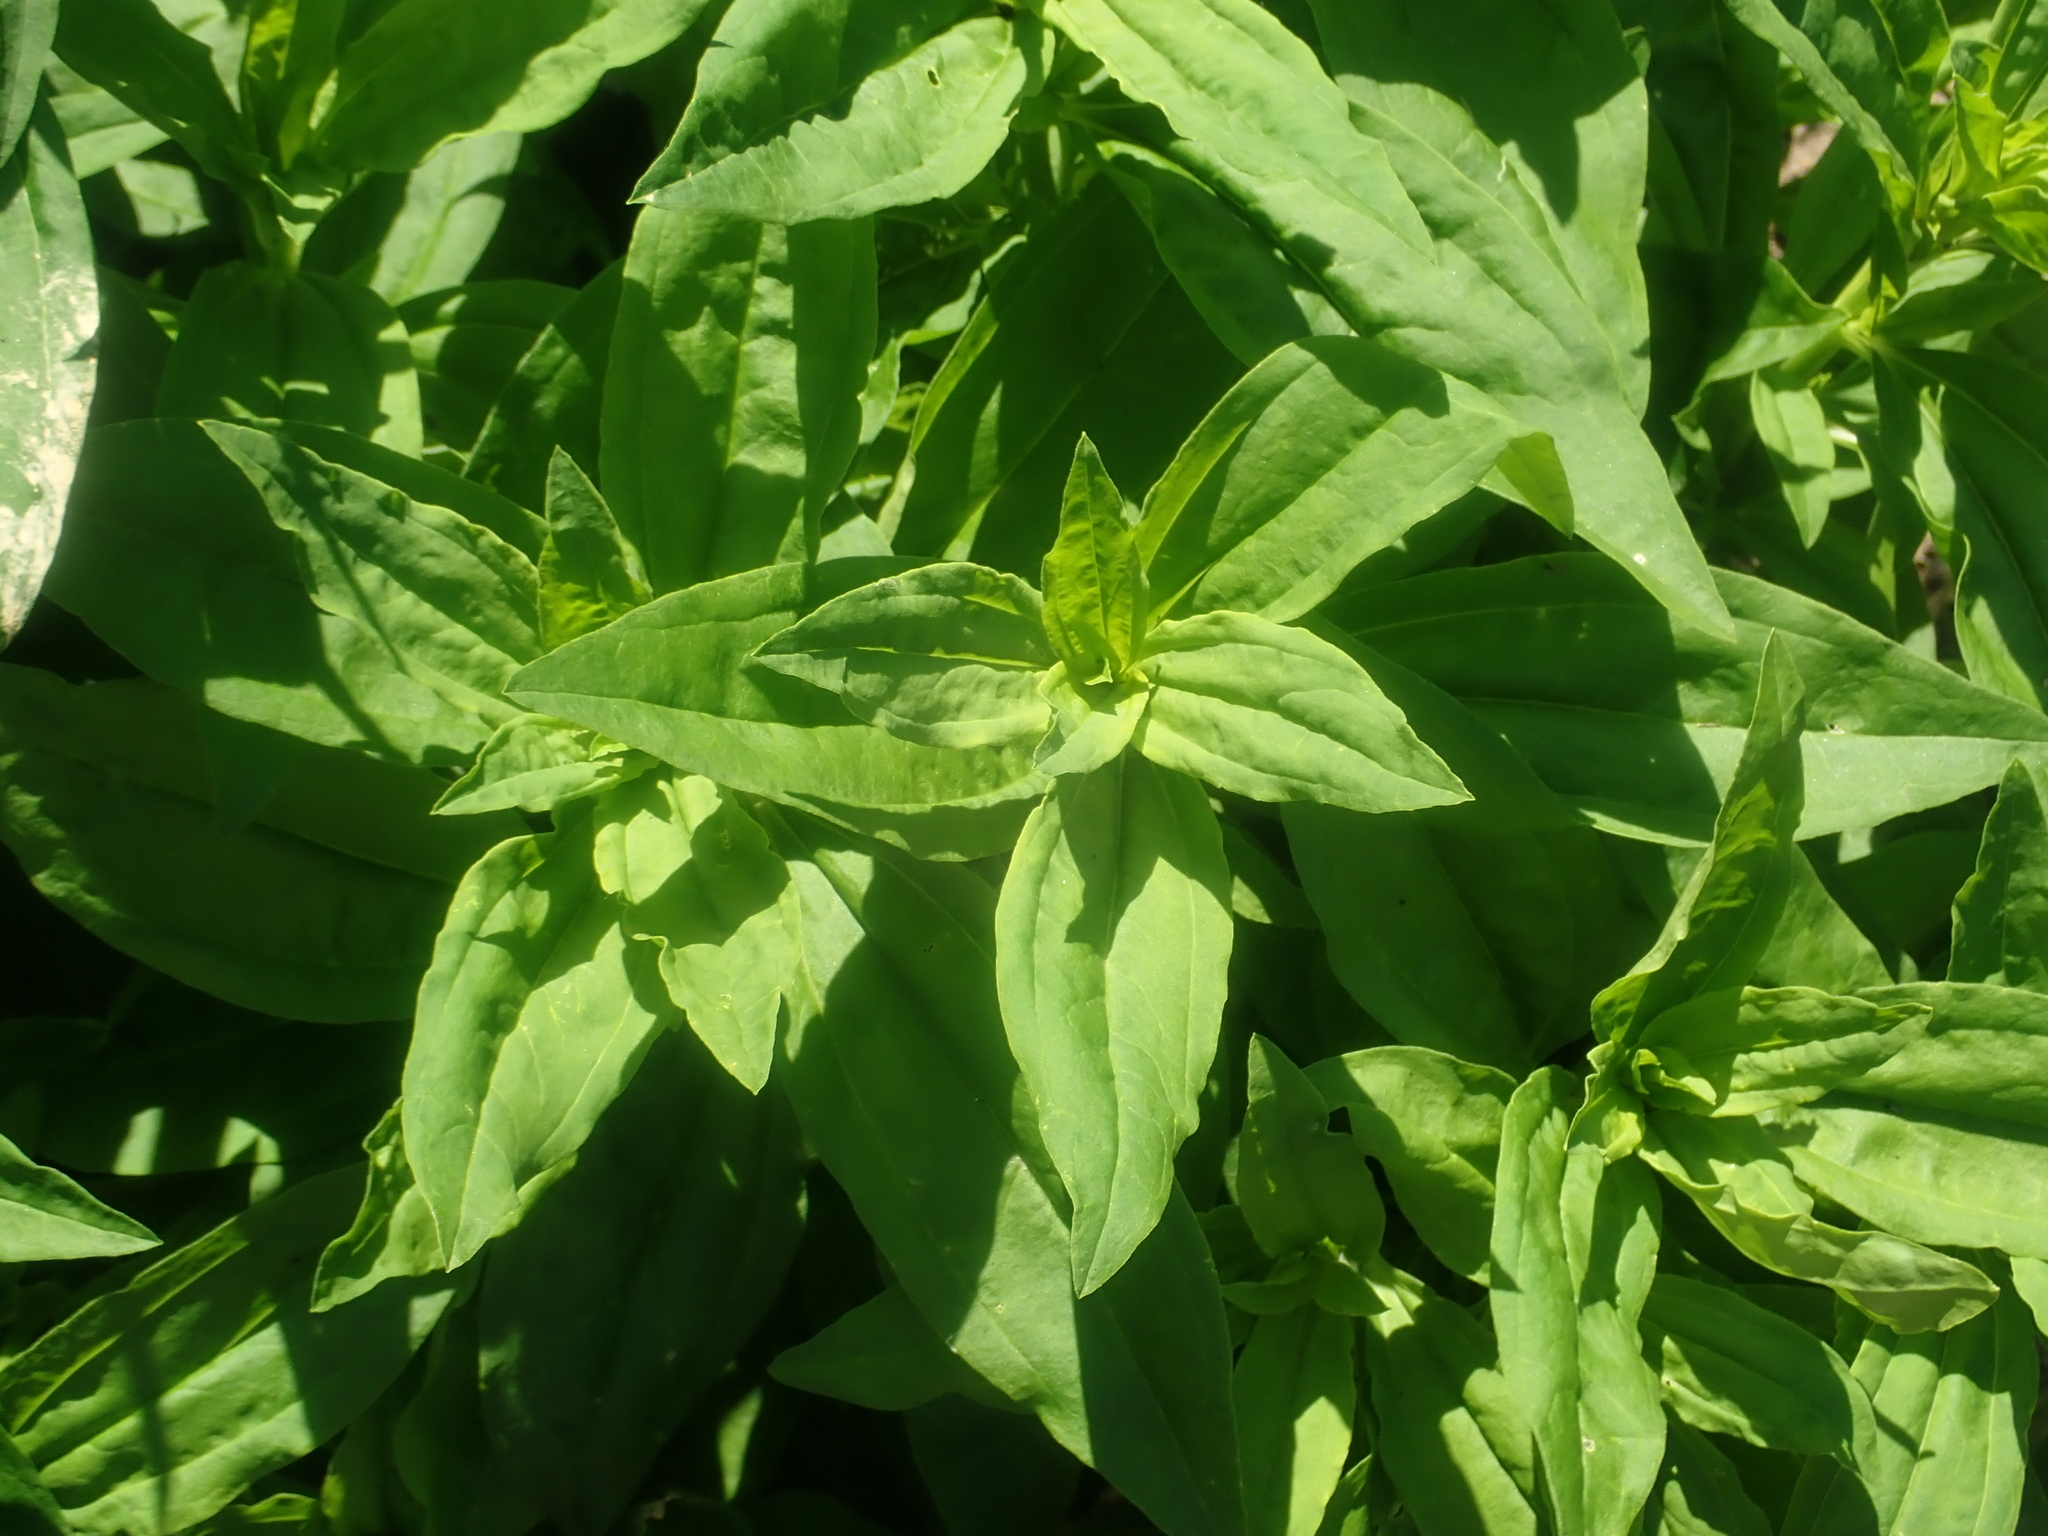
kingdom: Plantae
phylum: Tracheophyta
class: Magnoliopsida
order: Caryophyllales
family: Caryophyllaceae
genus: Saponaria
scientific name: Saponaria officinalis
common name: Soapwort
